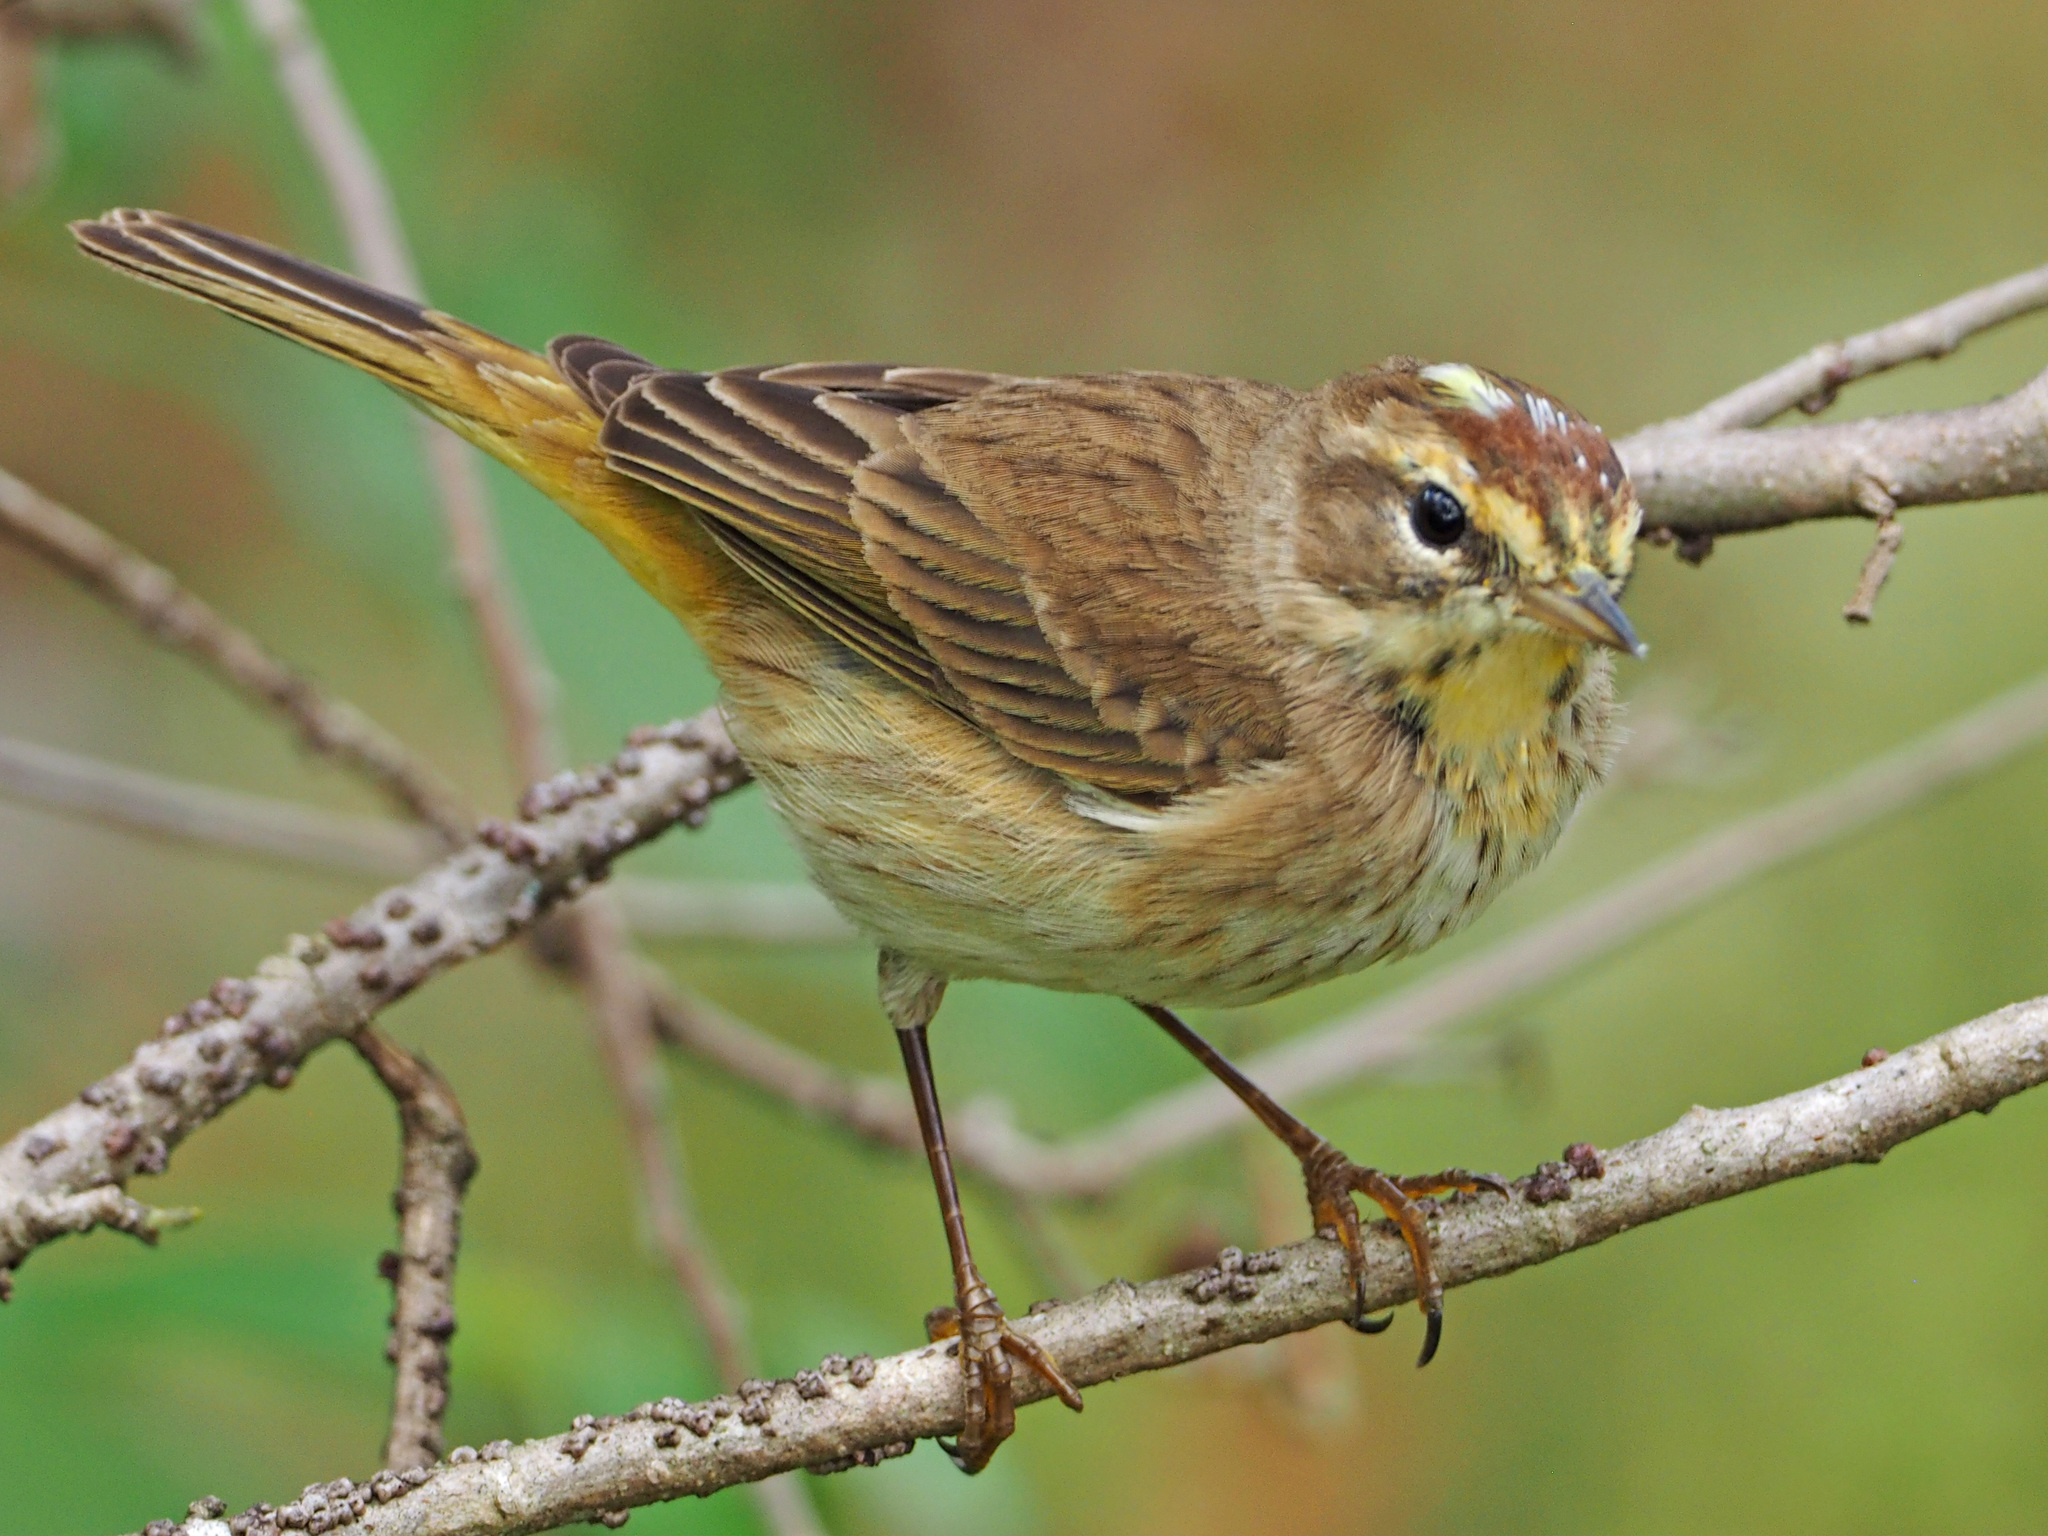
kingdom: Animalia
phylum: Chordata
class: Aves
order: Passeriformes
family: Parulidae
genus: Setophaga
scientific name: Setophaga palmarum
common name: Palm warbler
